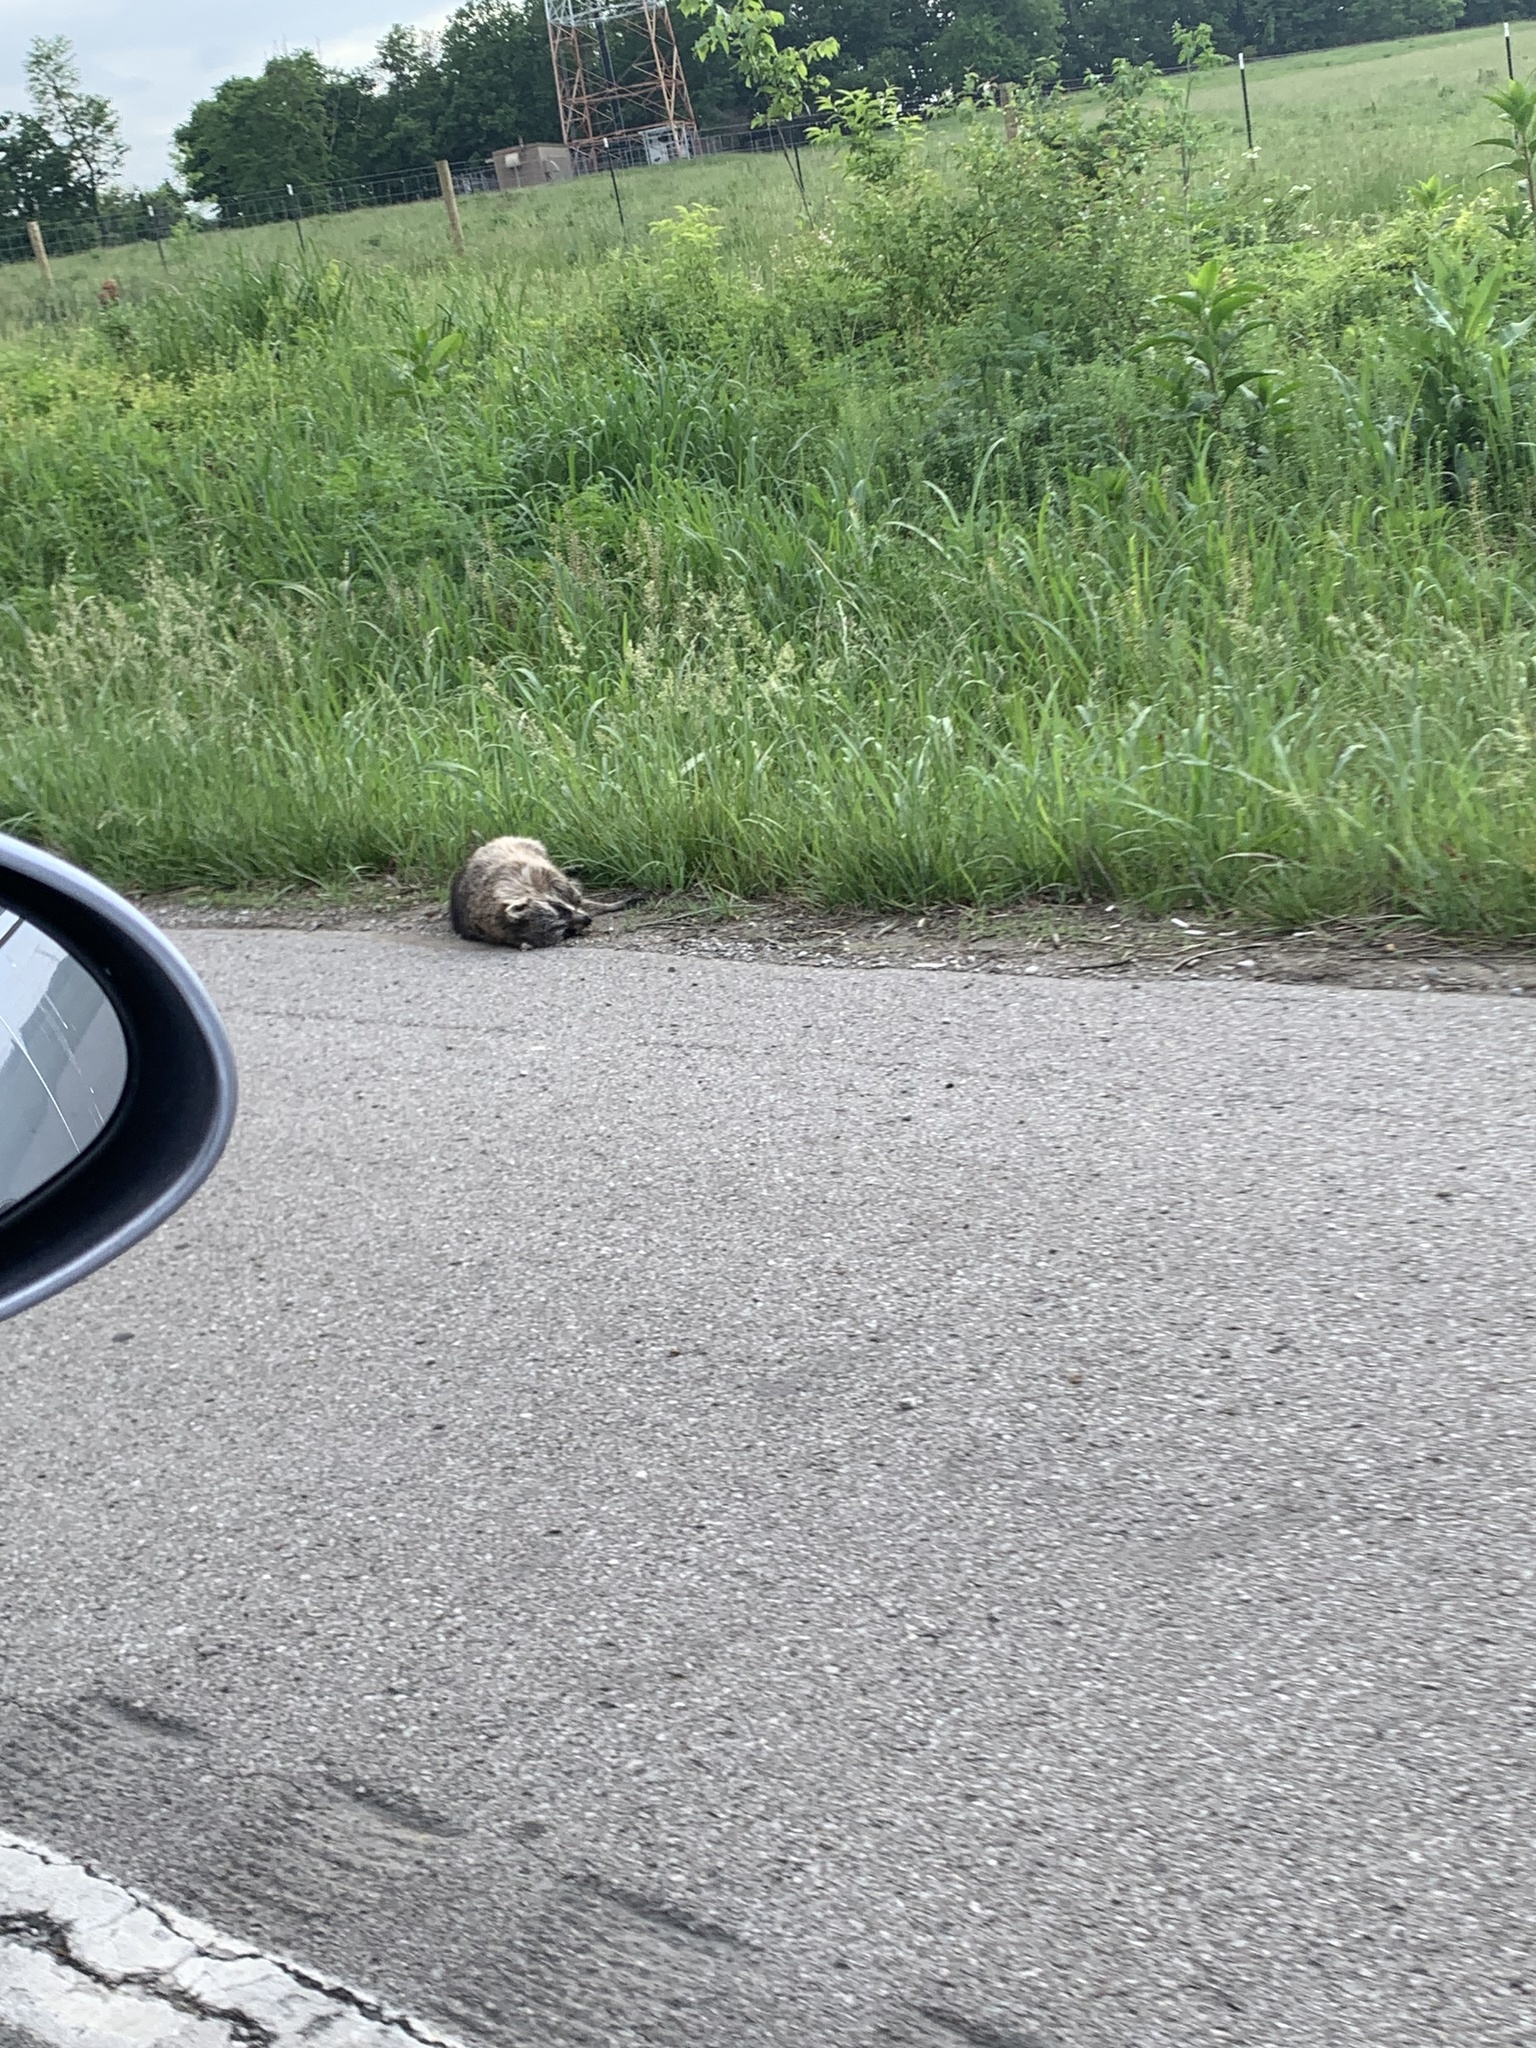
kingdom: Animalia
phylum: Chordata
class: Mammalia
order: Carnivora
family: Procyonidae
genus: Procyon
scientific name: Procyon lotor
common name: Raccoon
